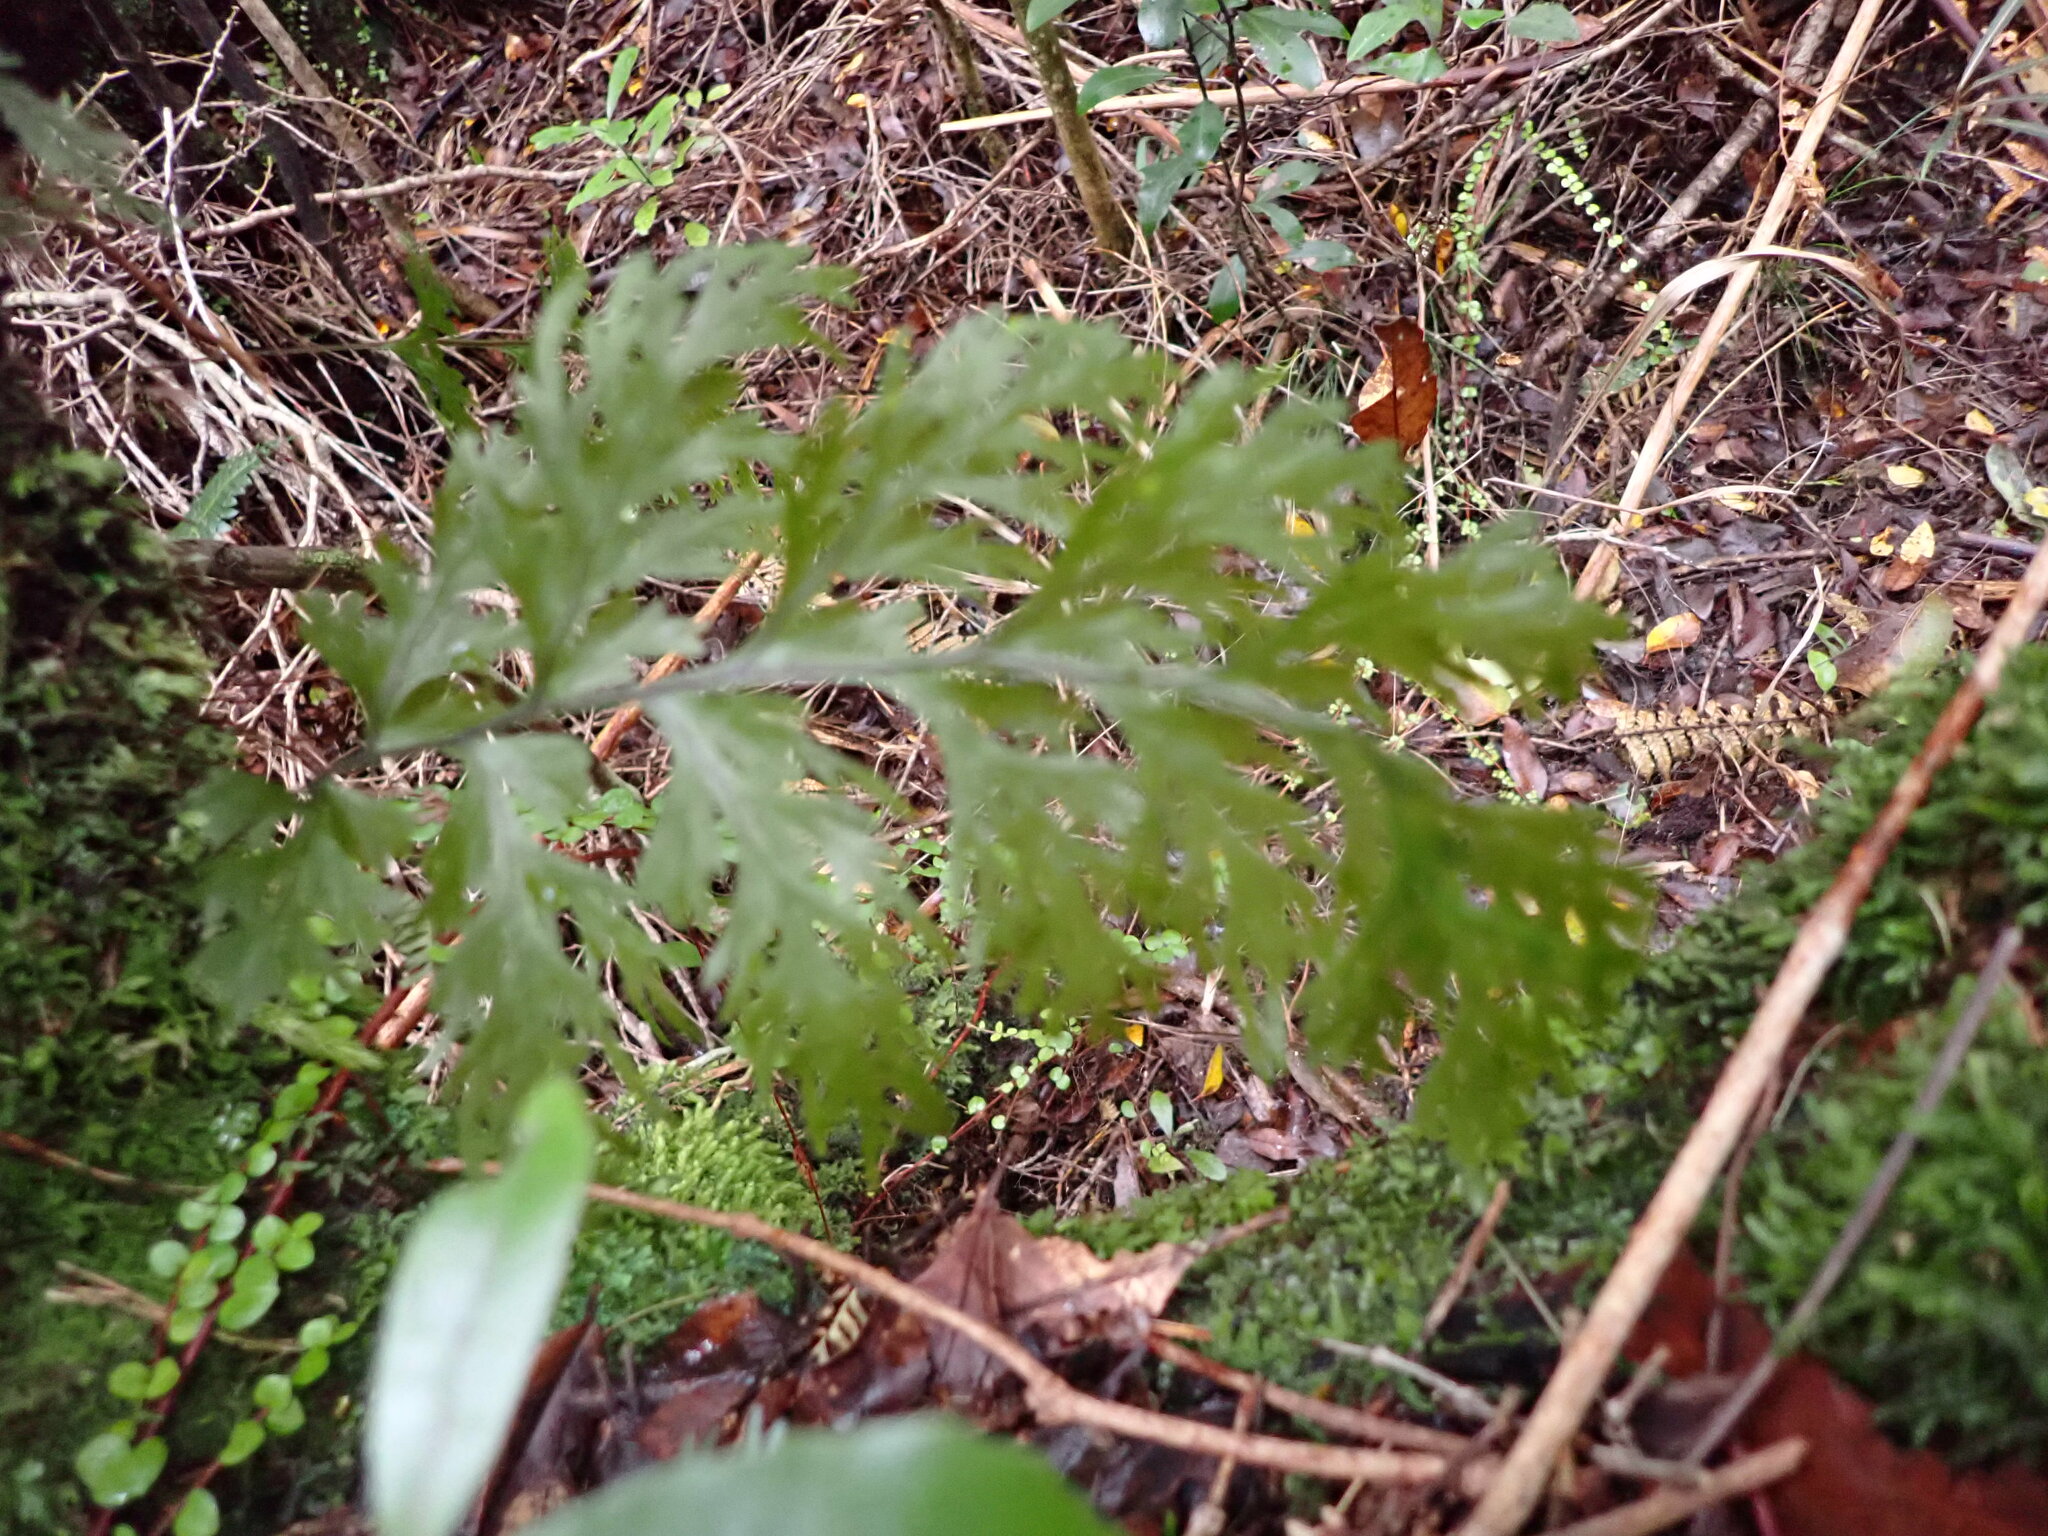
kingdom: Plantae
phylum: Tracheophyta
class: Polypodiopsida
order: Hymenophyllales
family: Hymenophyllaceae
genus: Hymenophyllum
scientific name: Hymenophyllum dilatatum
